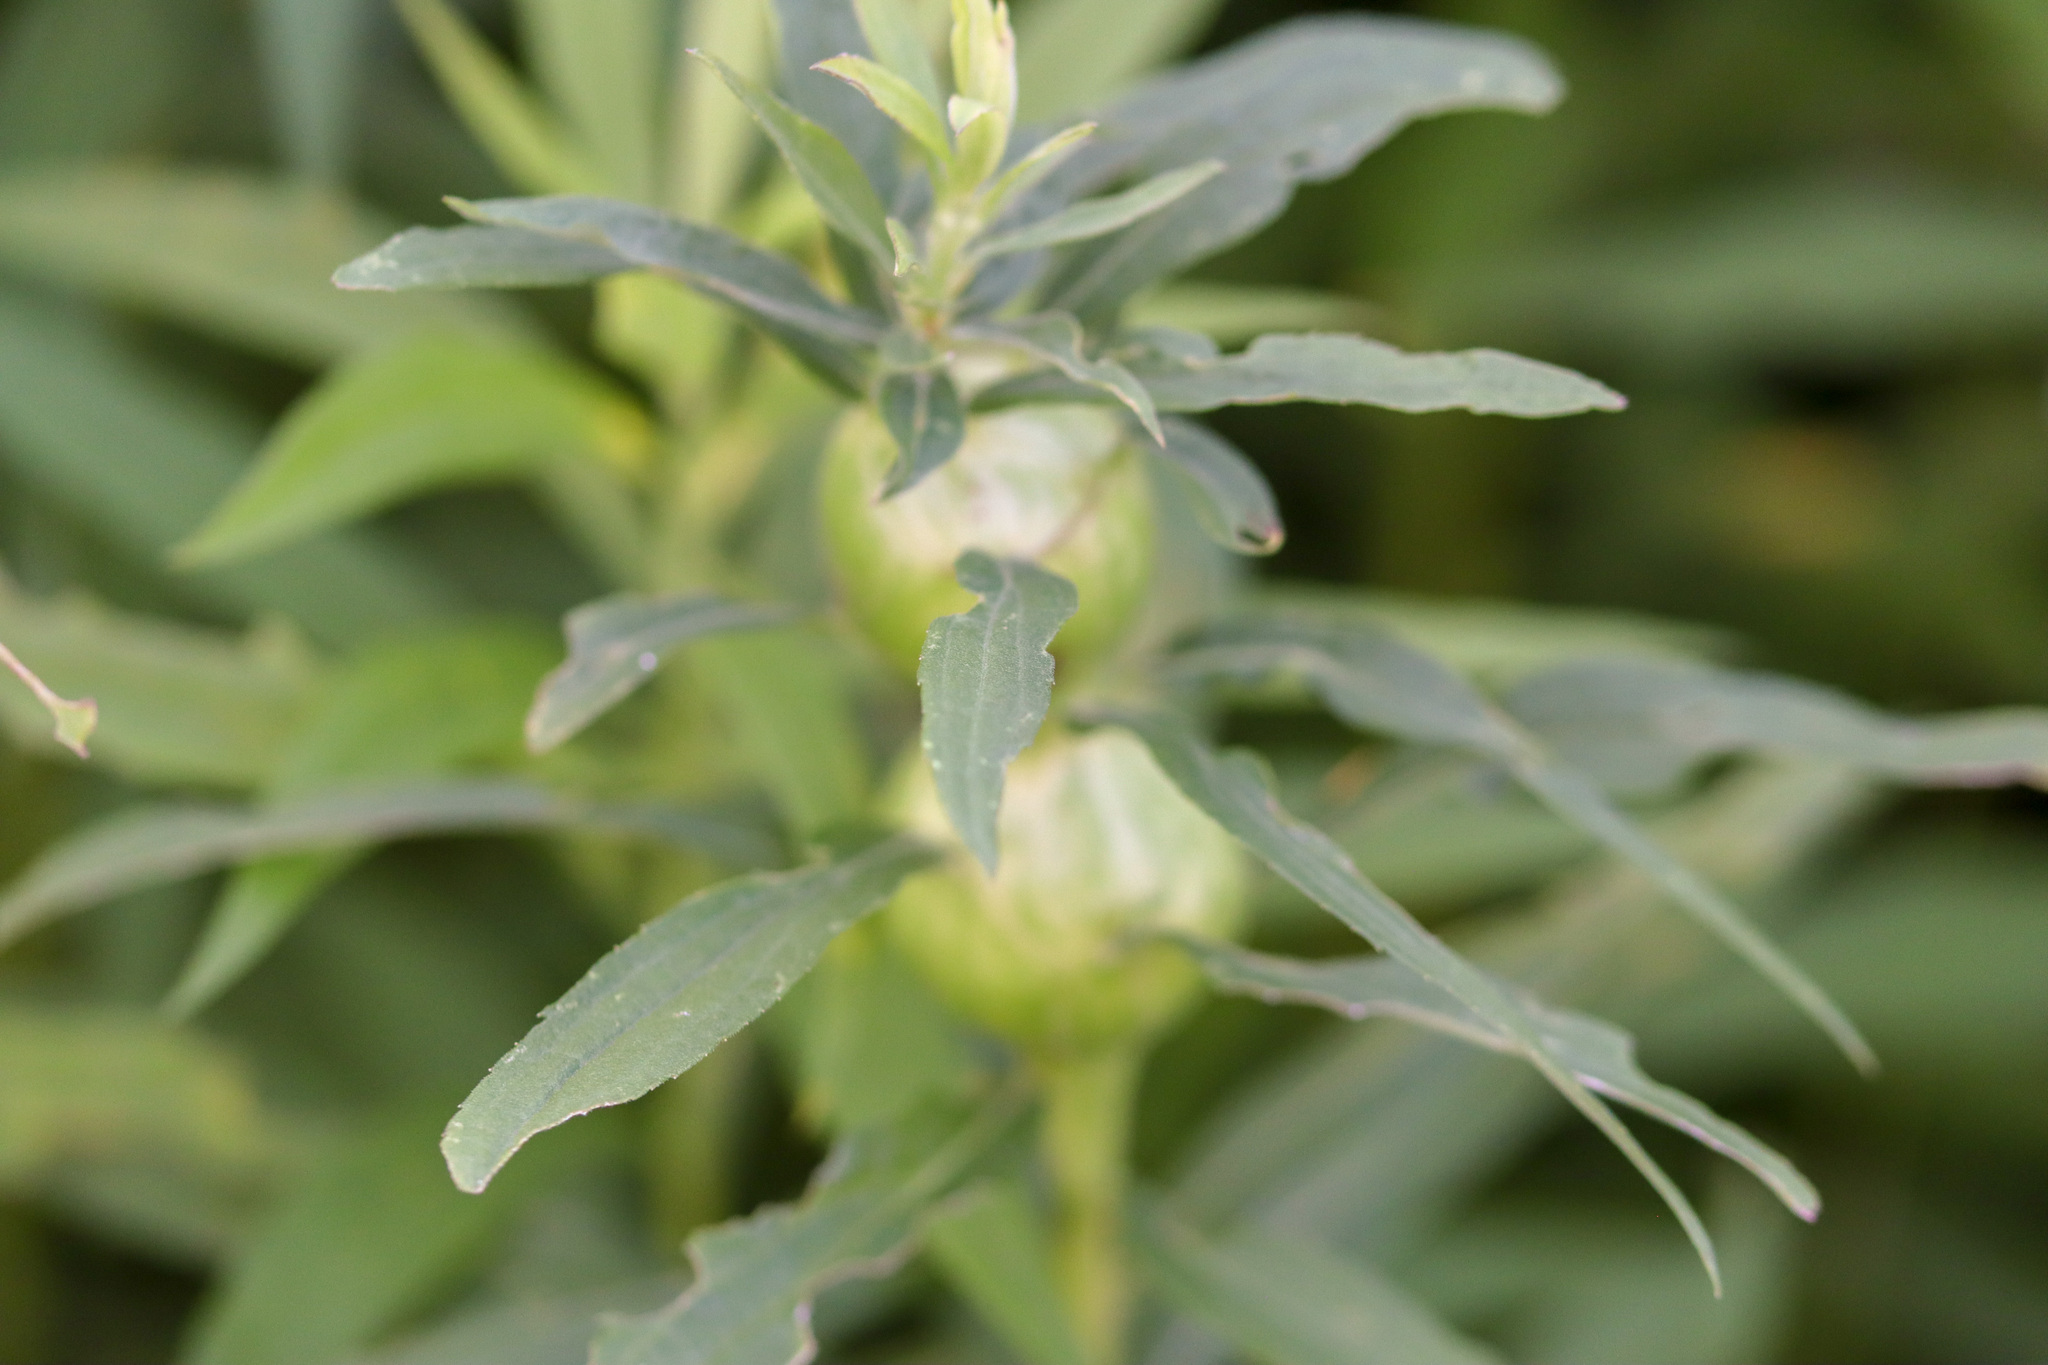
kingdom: Animalia
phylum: Arthropoda
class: Insecta
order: Diptera
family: Tephritidae
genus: Eurosta
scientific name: Eurosta solidaginis
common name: Goldenrod gall fly
